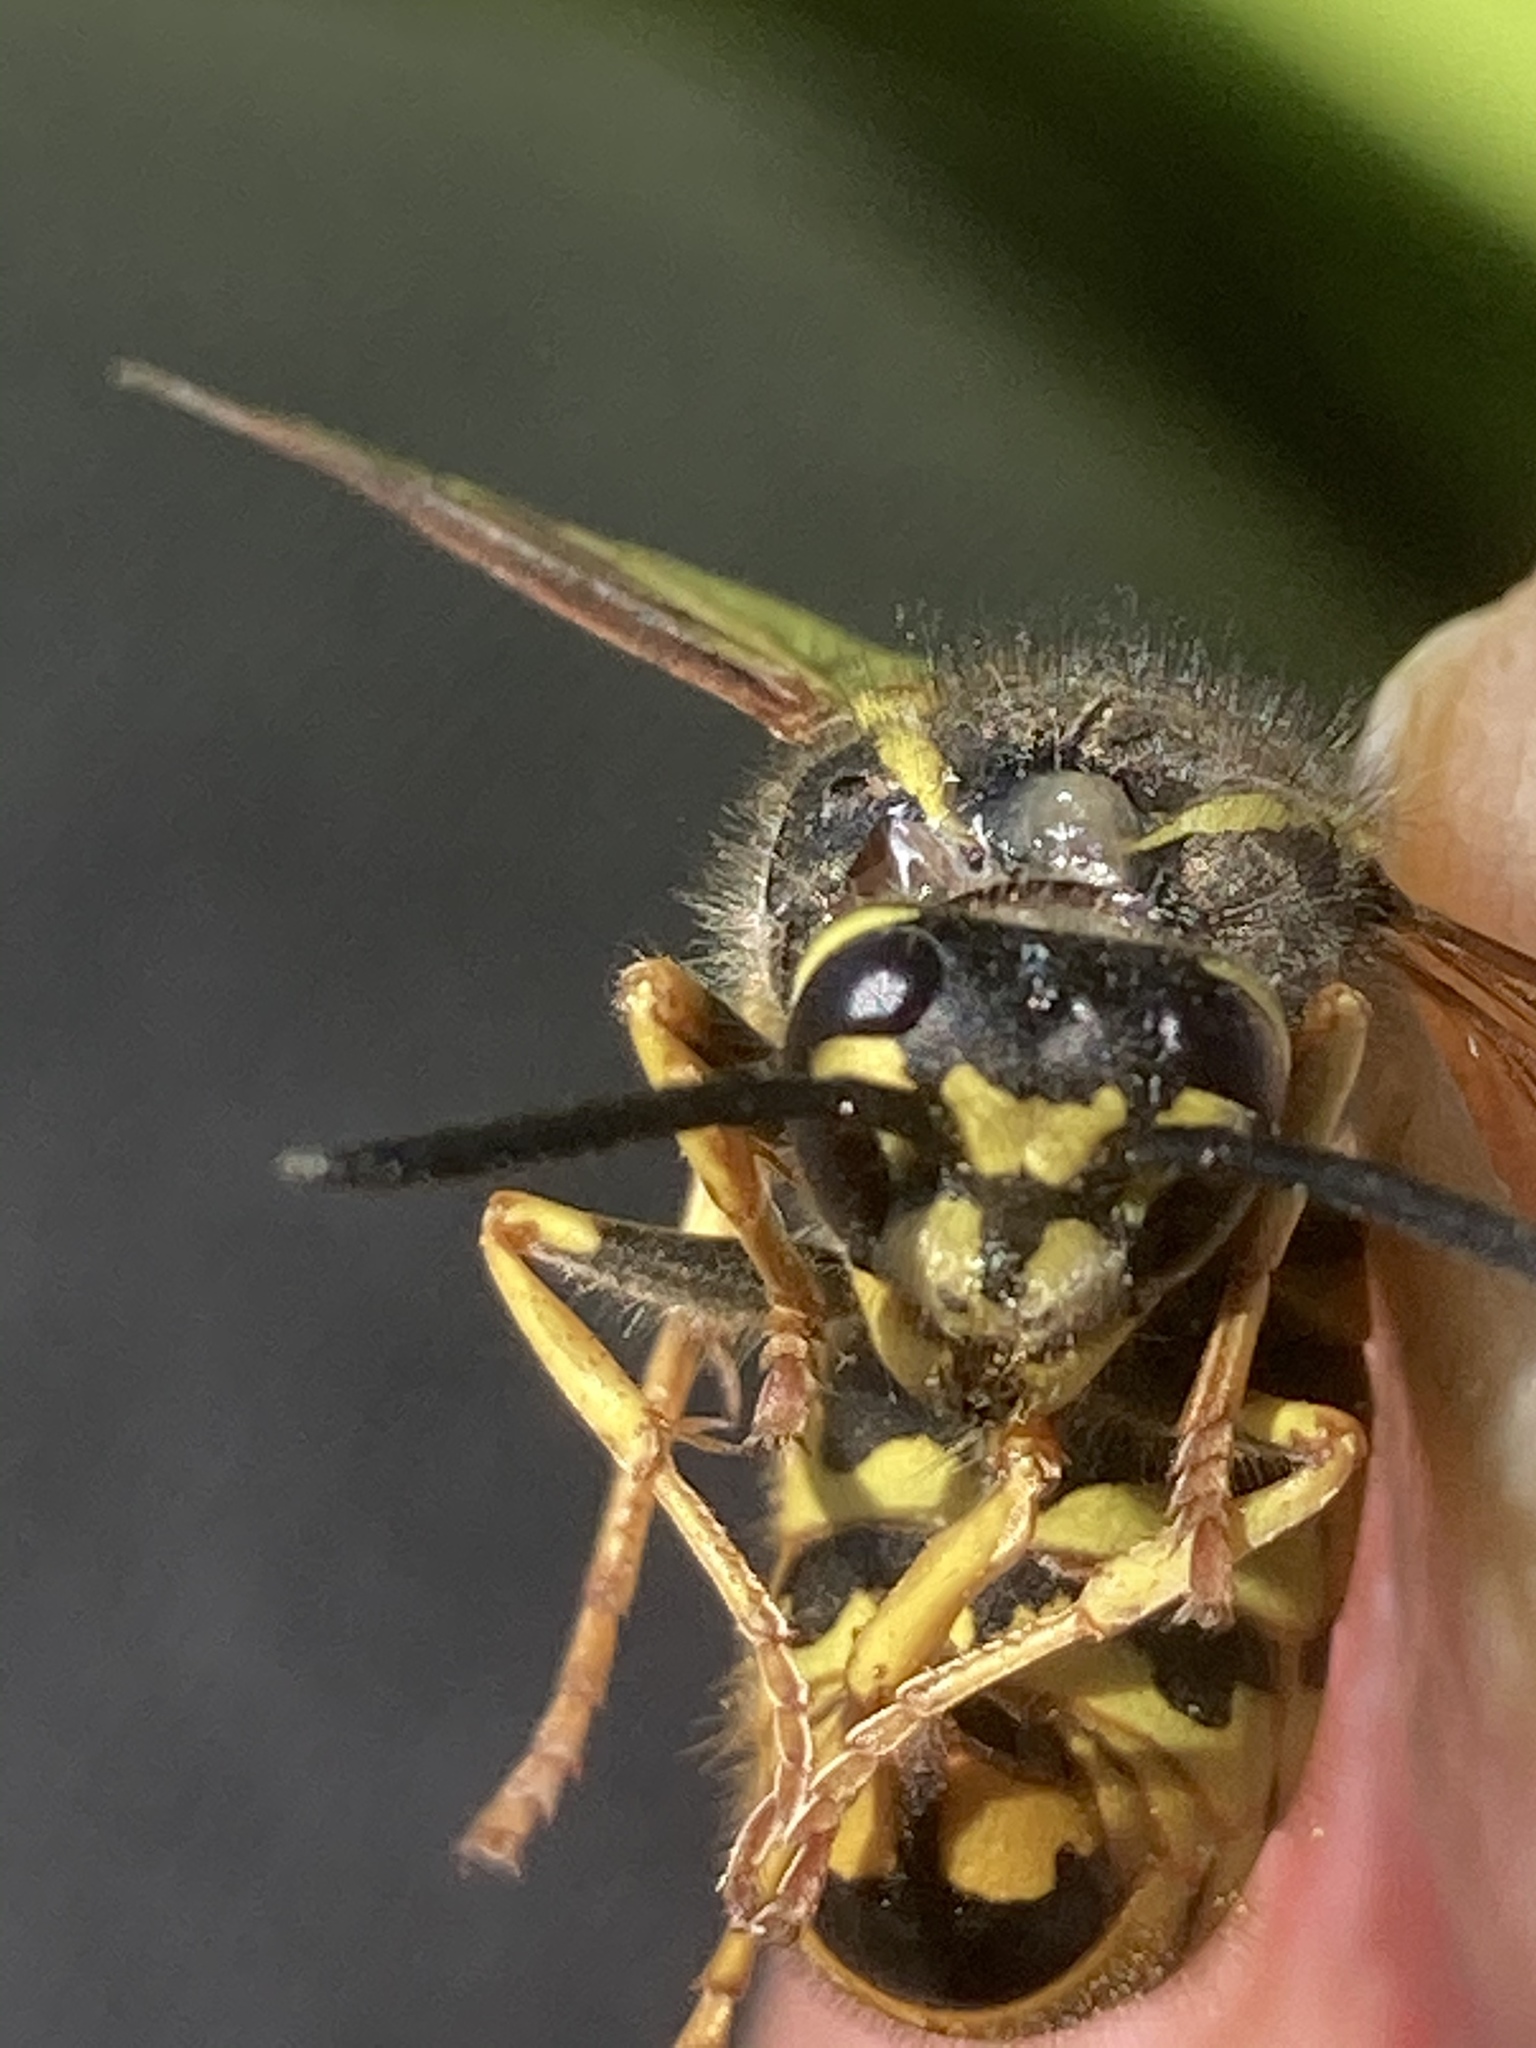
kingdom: Animalia
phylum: Arthropoda
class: Insecta
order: Hymenoptera
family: Vespidae
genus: Vespula
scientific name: Vespula germanica
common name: German wasp
